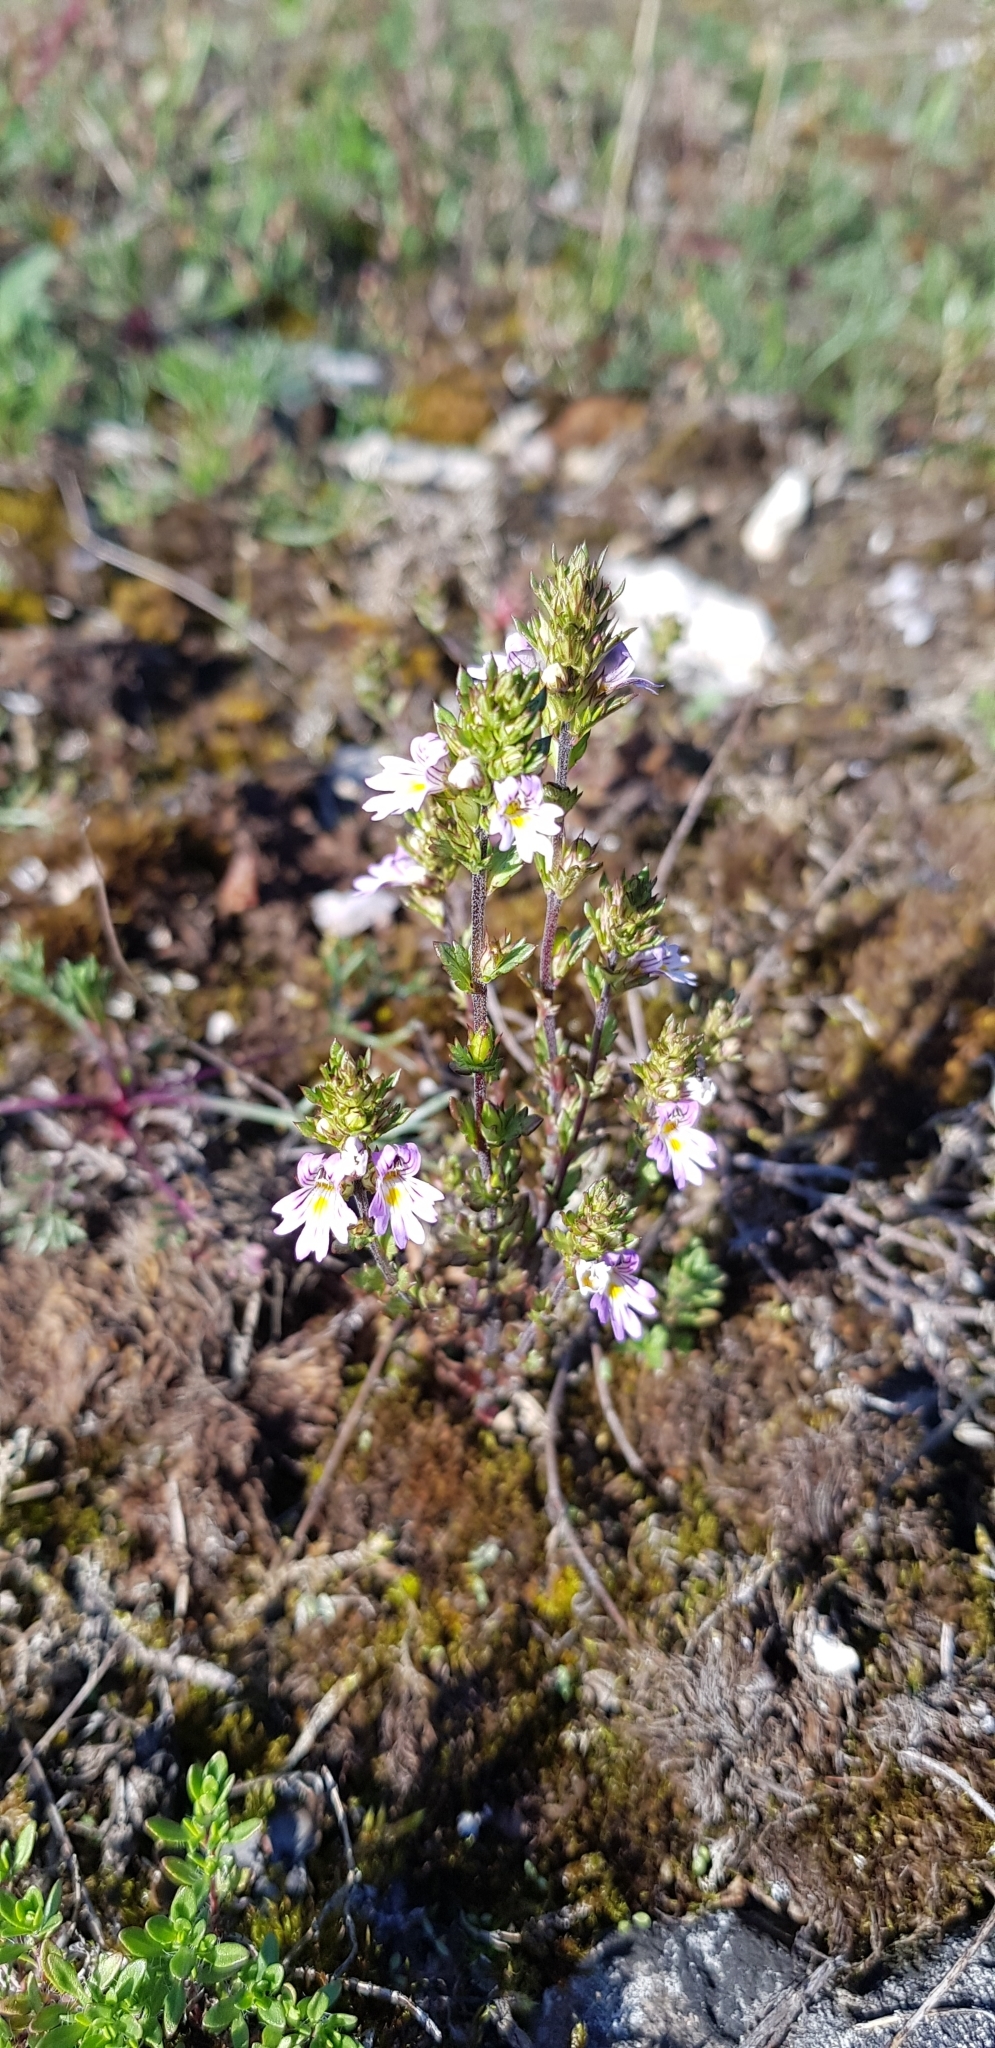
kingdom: Plantae
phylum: Tracheophyta
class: Magnoliopsida
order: Lamiales
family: Orobanchaceae
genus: Euphrasia
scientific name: Euphrasia stricta
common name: Drug eyebright
